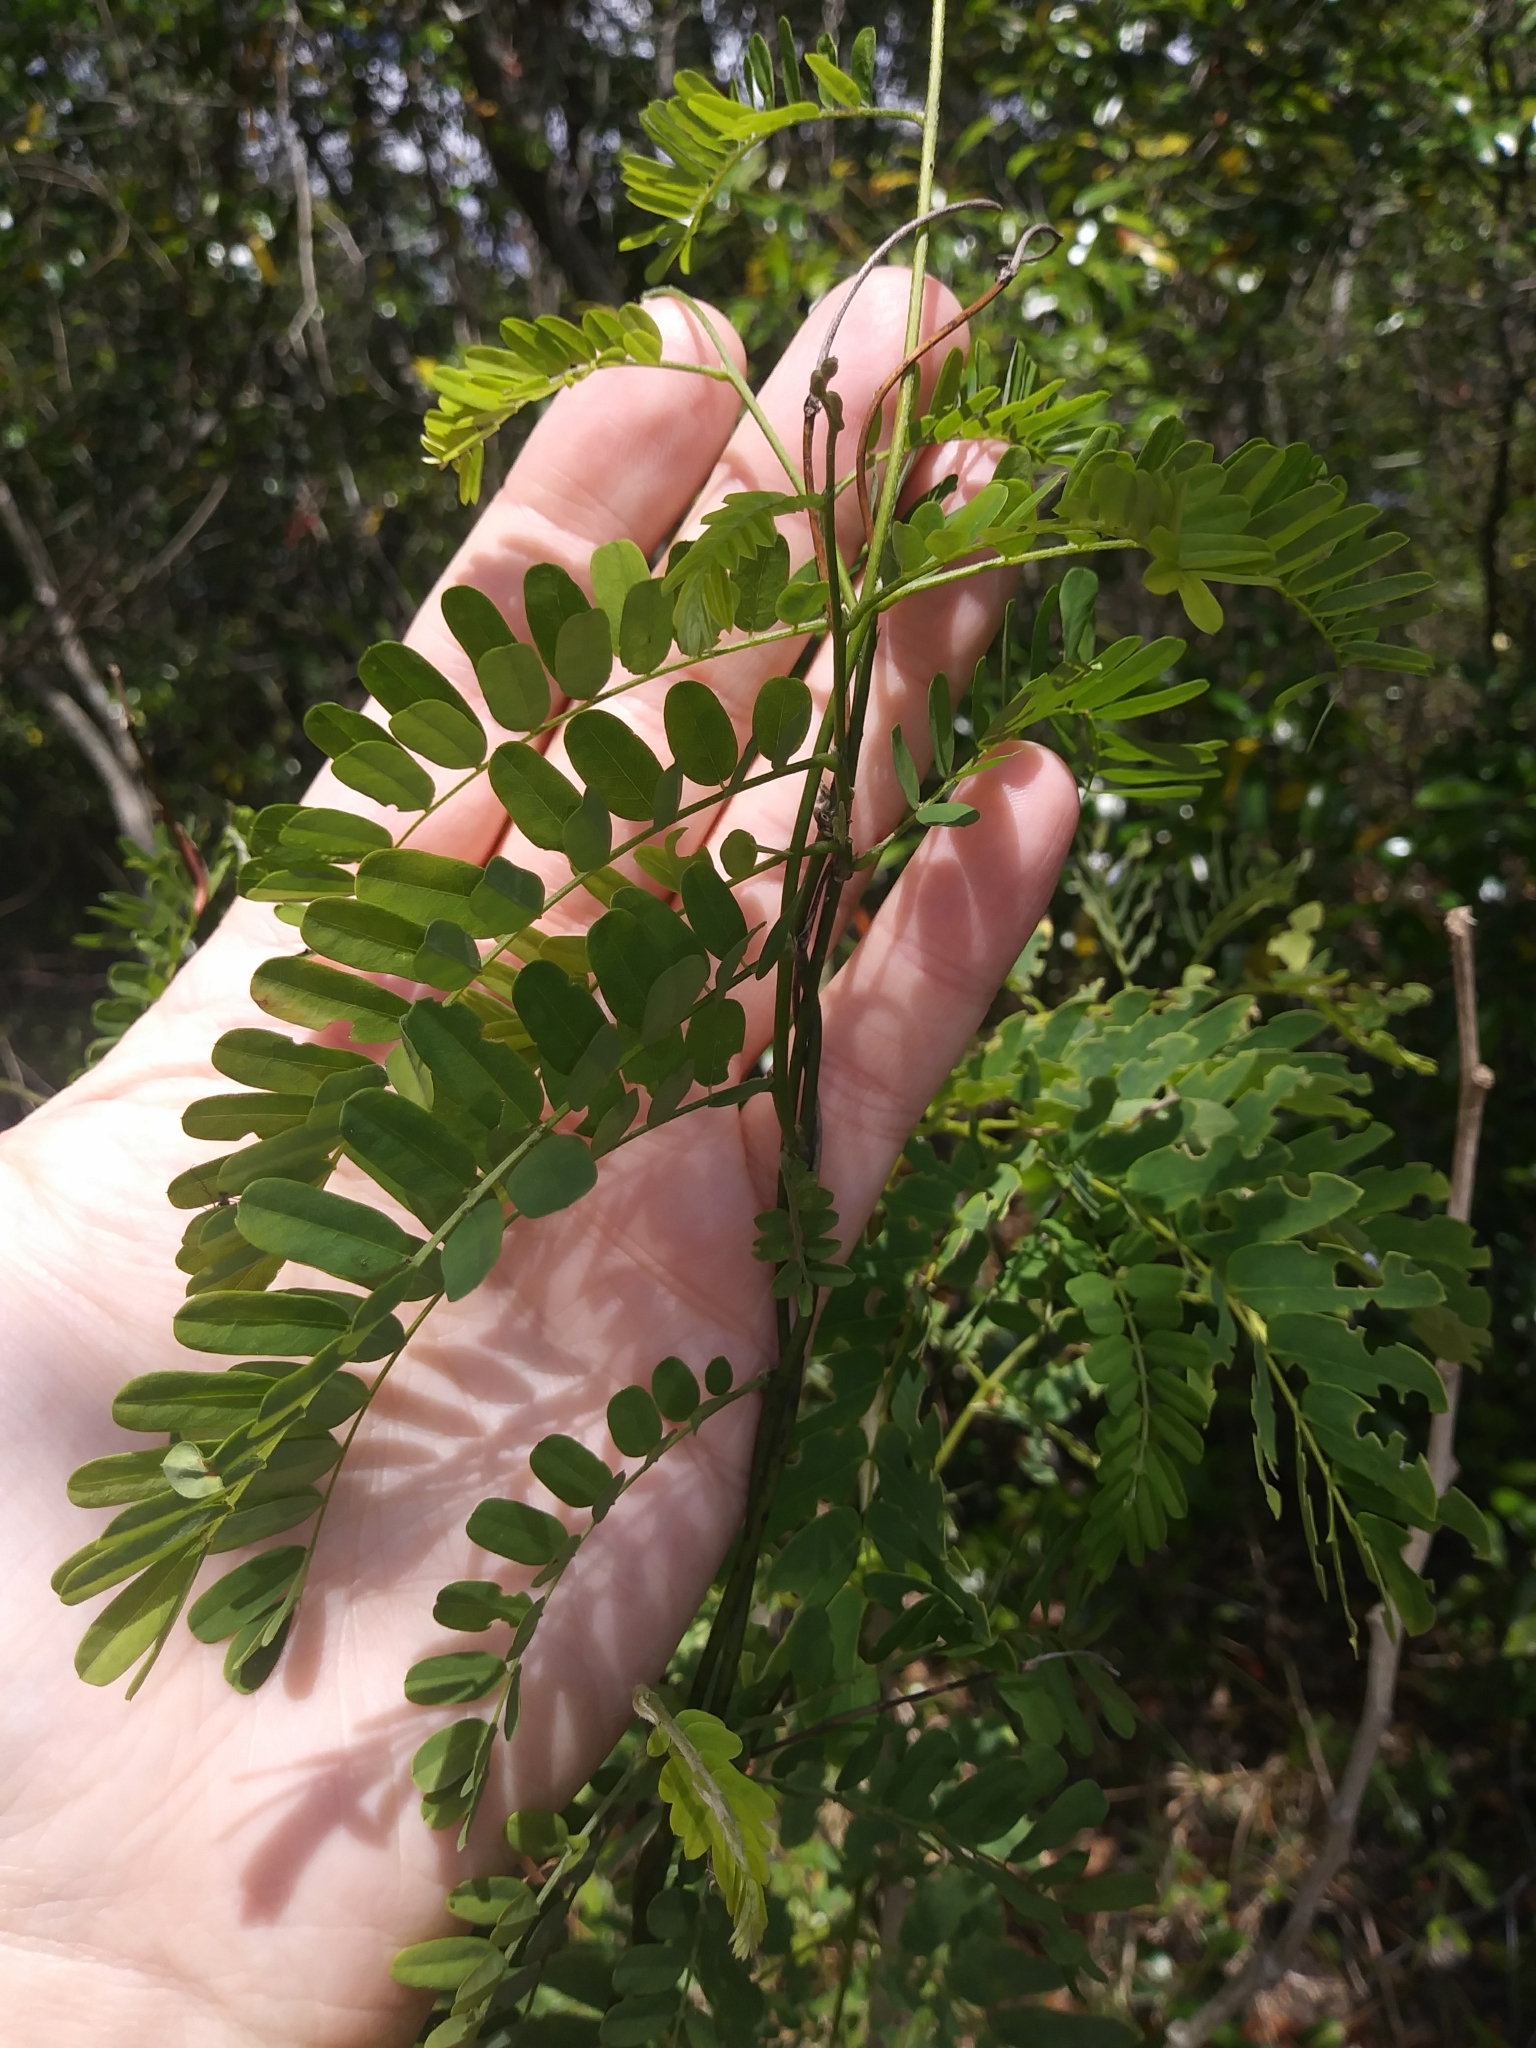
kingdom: Plantae
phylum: Tracheophyta
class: Magnoliopsida
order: Fabales
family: Fabaceae
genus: Abrus
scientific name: Abrus precatorius
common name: Rosarypea
